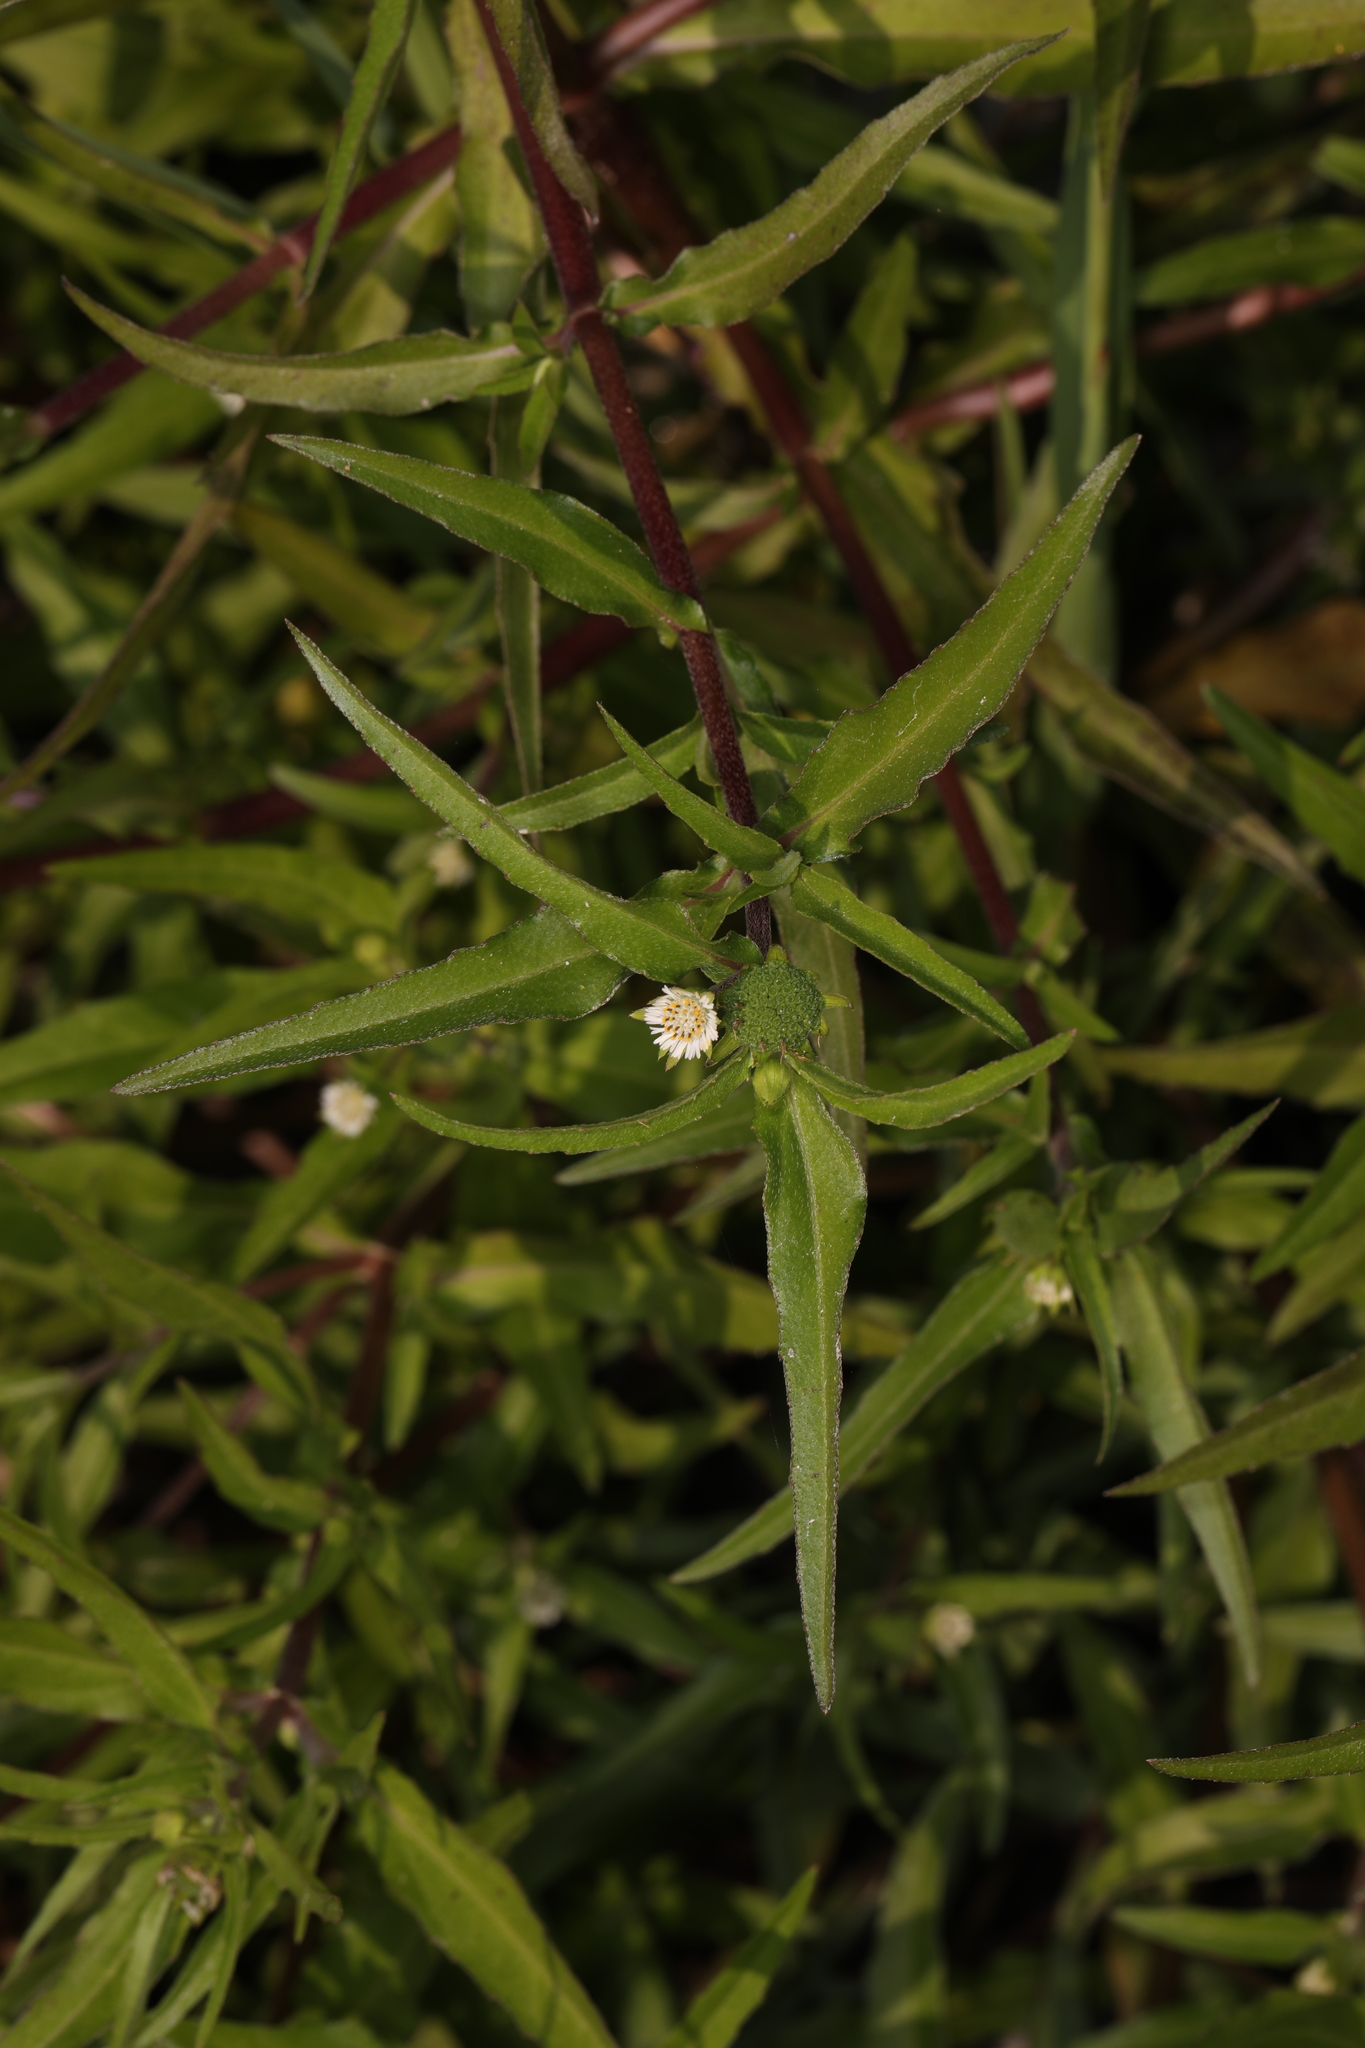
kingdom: Plantae
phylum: Tracheophyta
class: Magnoliopsida
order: Asterales
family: Asteraceae
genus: Eclipta
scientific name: Eclipta prostrata
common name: False daisy
